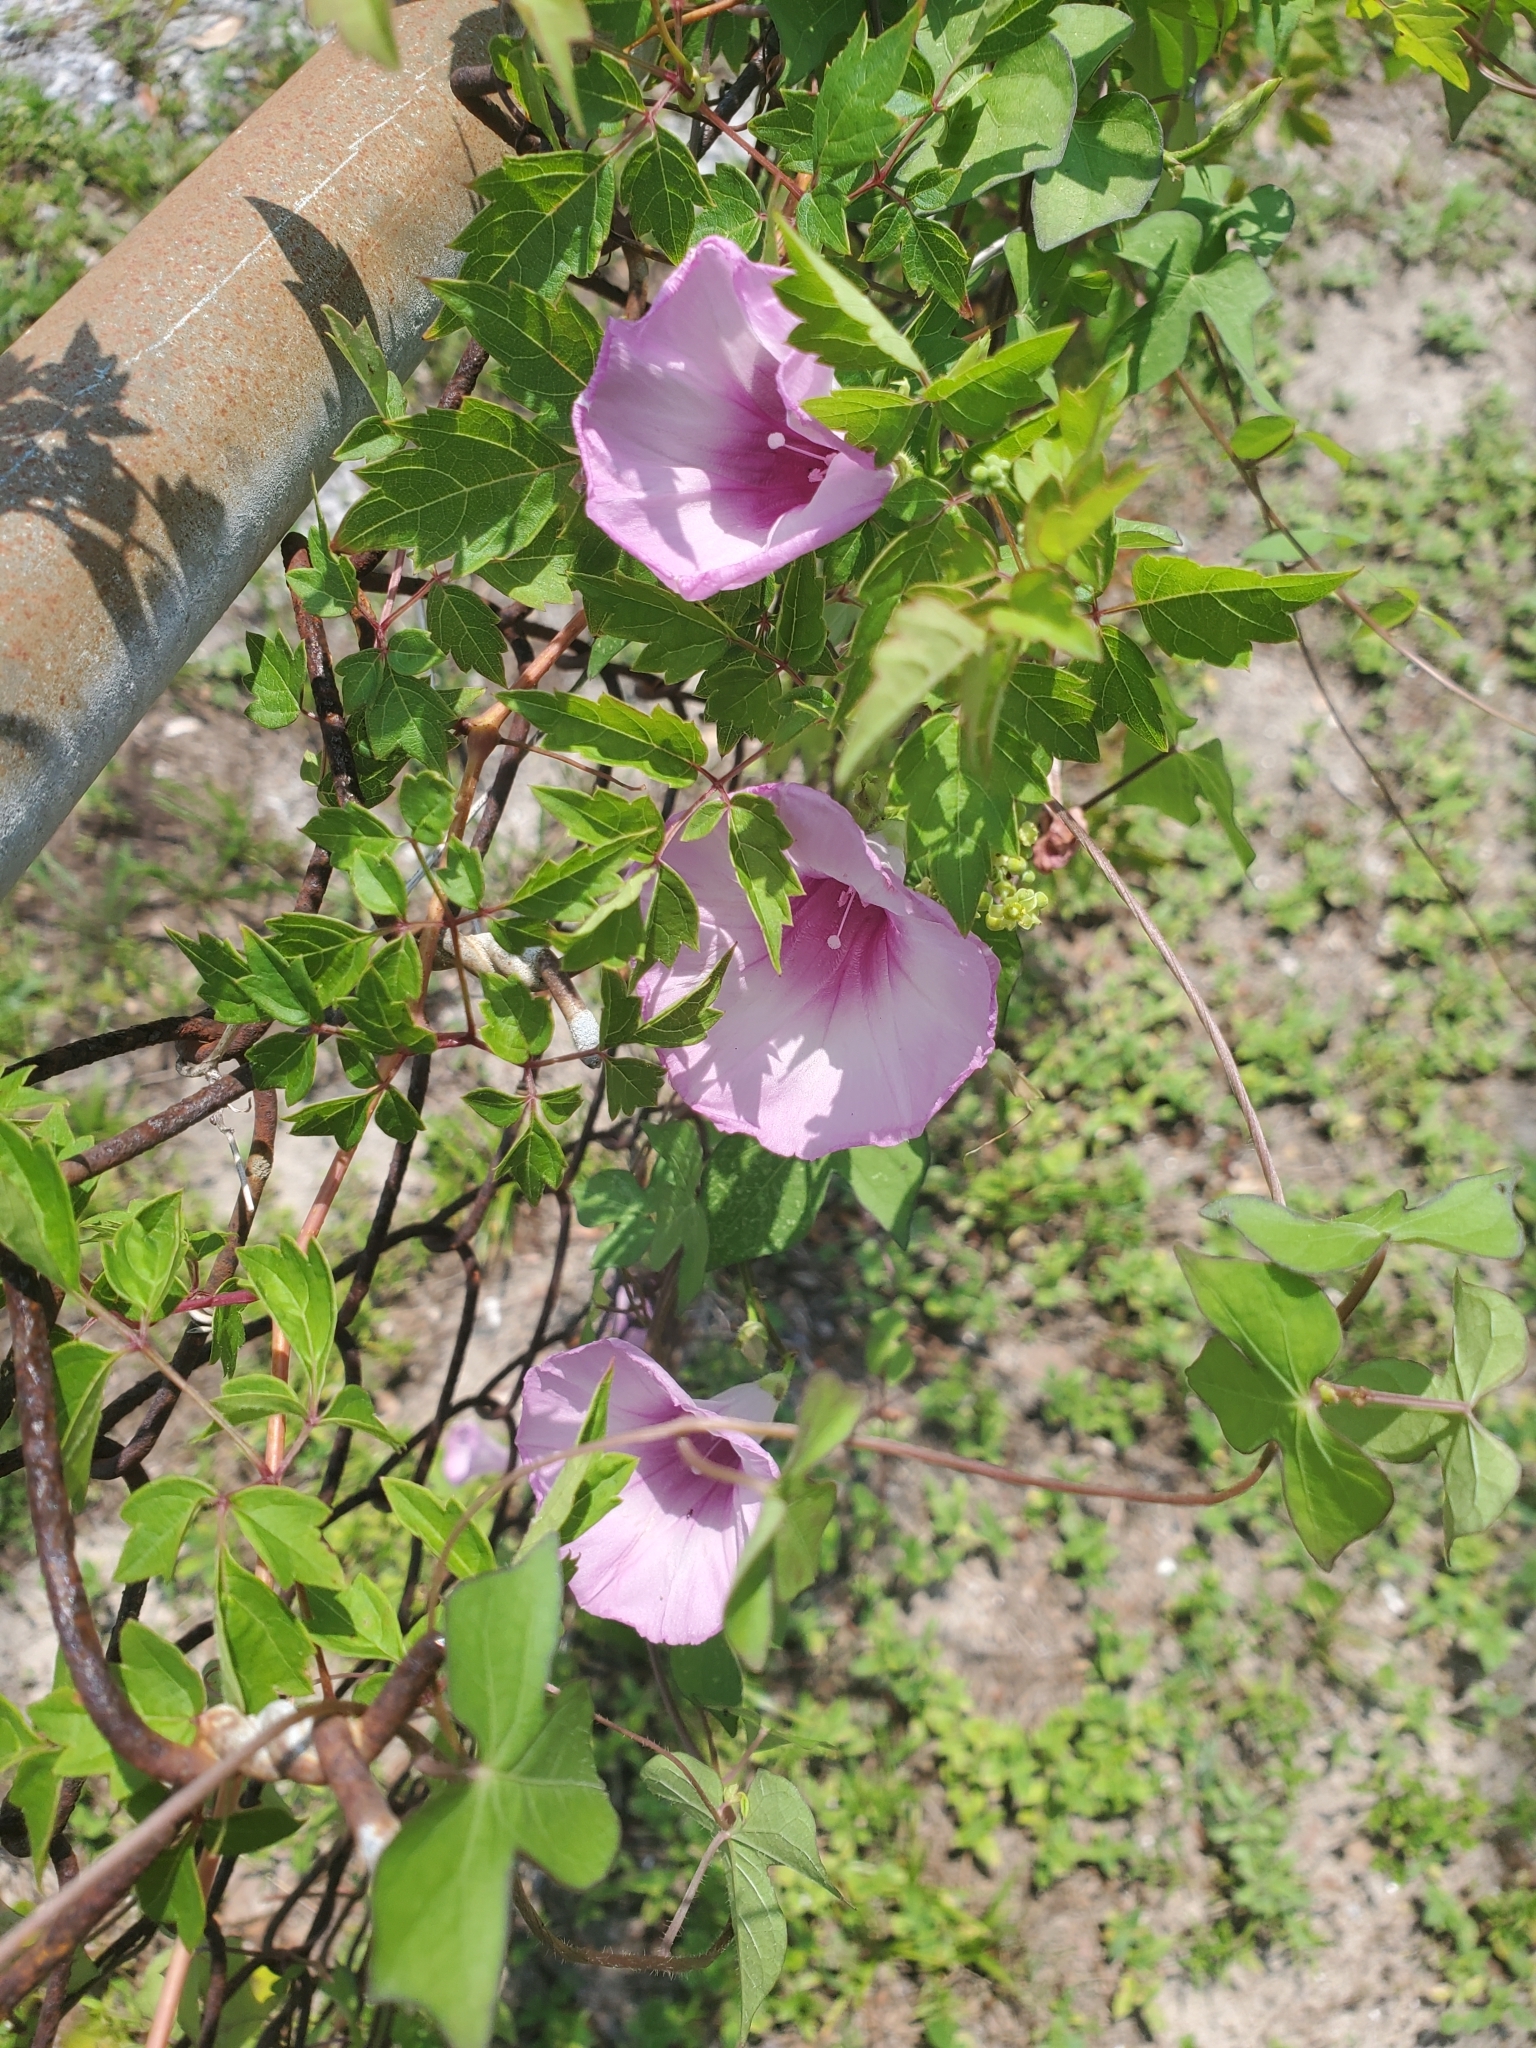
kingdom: Plantae
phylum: Tracheophyta
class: Magnoliopsida
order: Solanales
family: Convolvulaceae
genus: Ipomoea
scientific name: Ipomoea cordatotriloba
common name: Cotton morning glory
